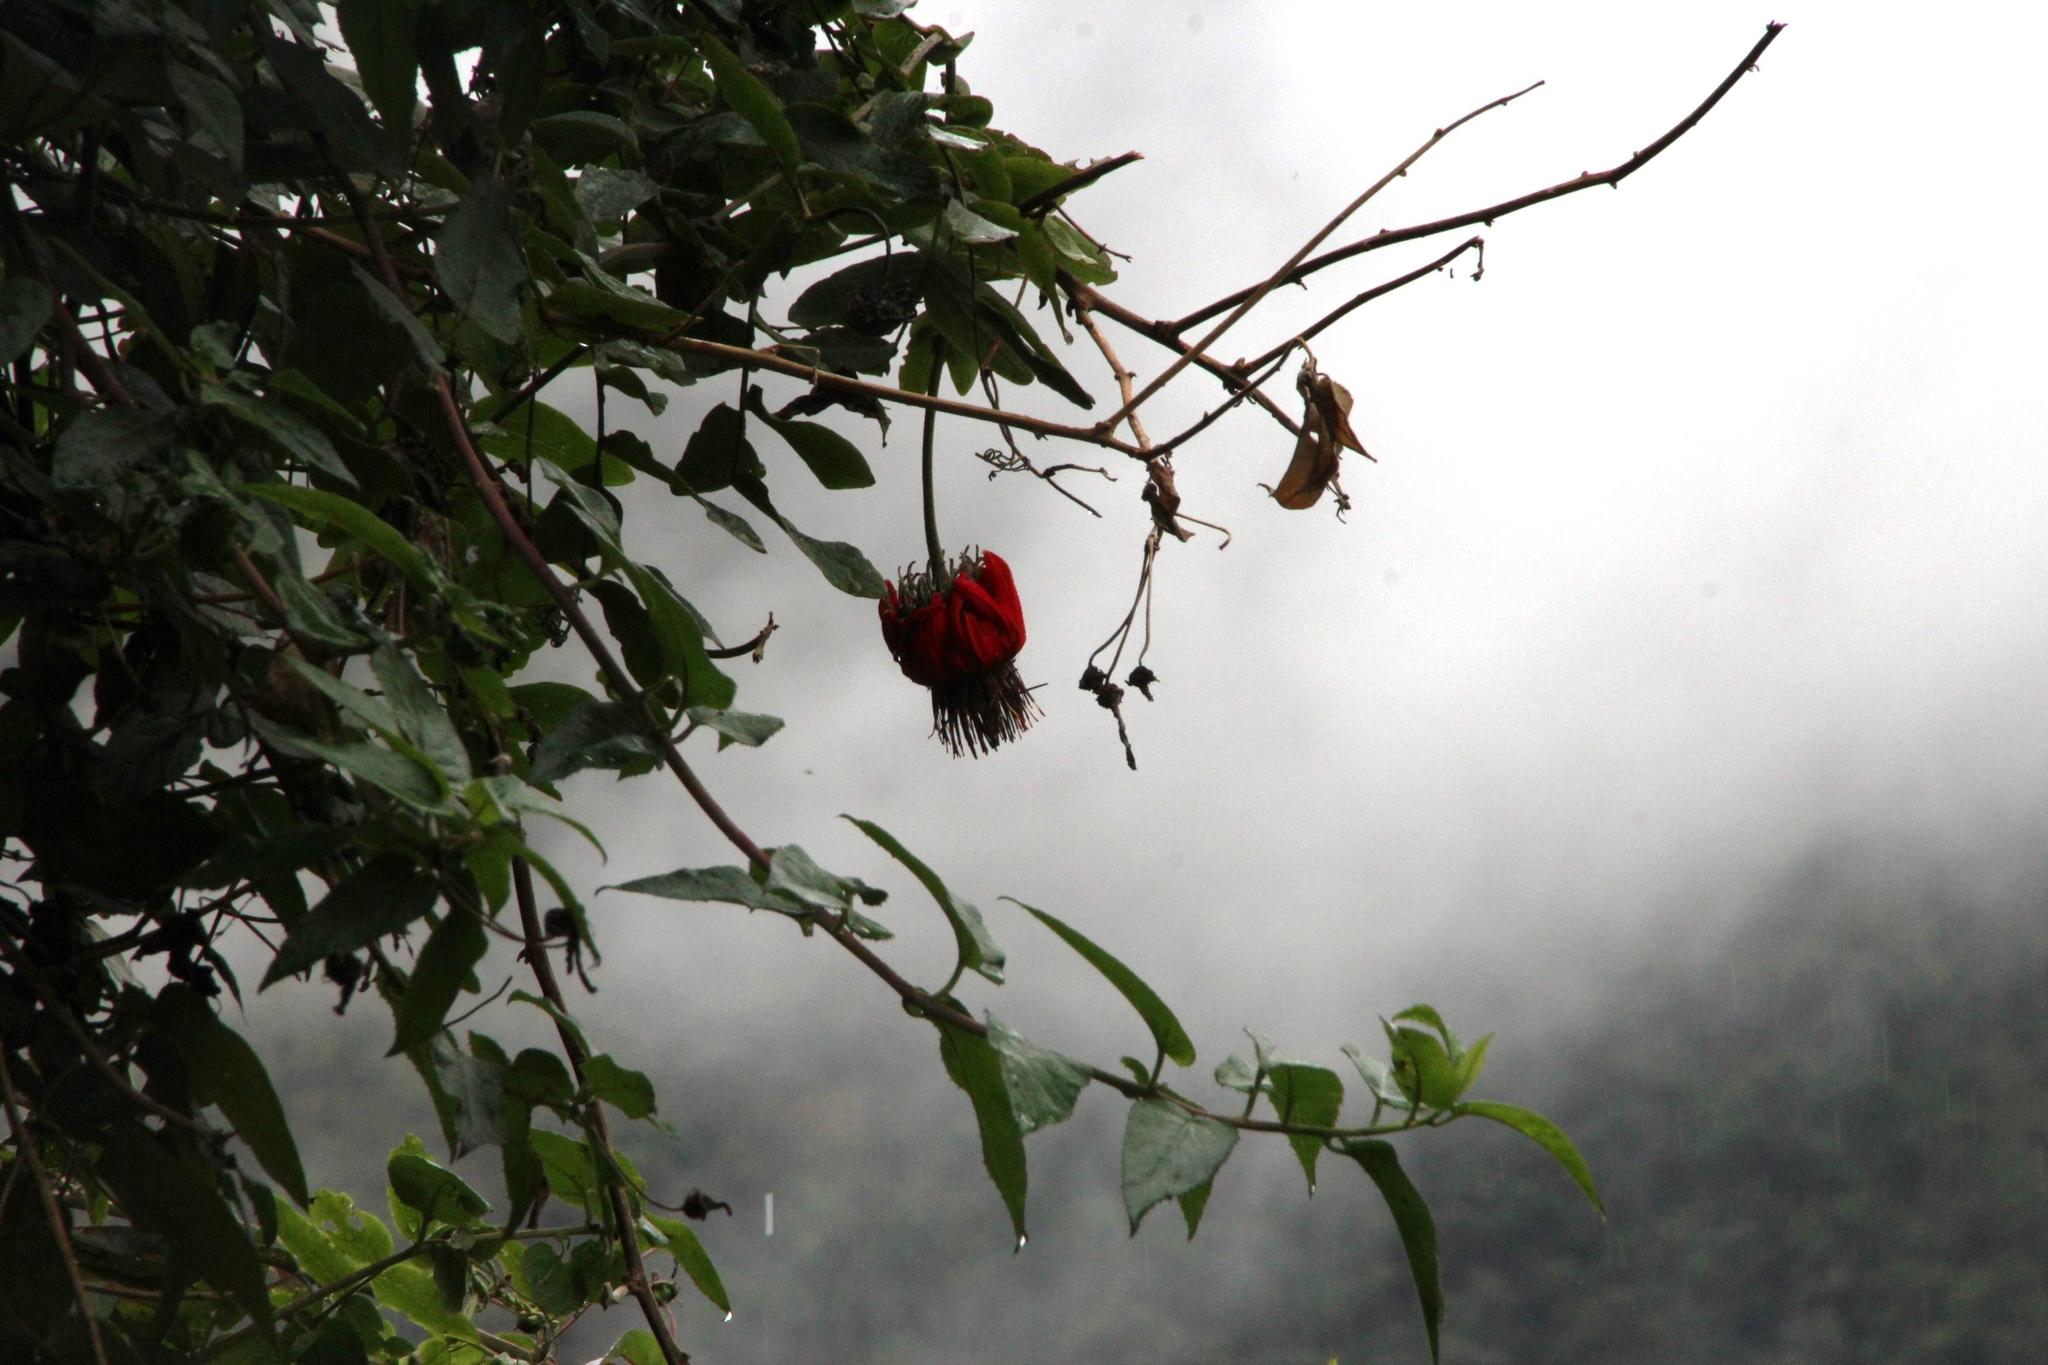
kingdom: Plantae
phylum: Tracheophyta
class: Magnoliopsida
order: Asterales
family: Asteraceae
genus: Mutisia
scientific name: Mutisia lanata
